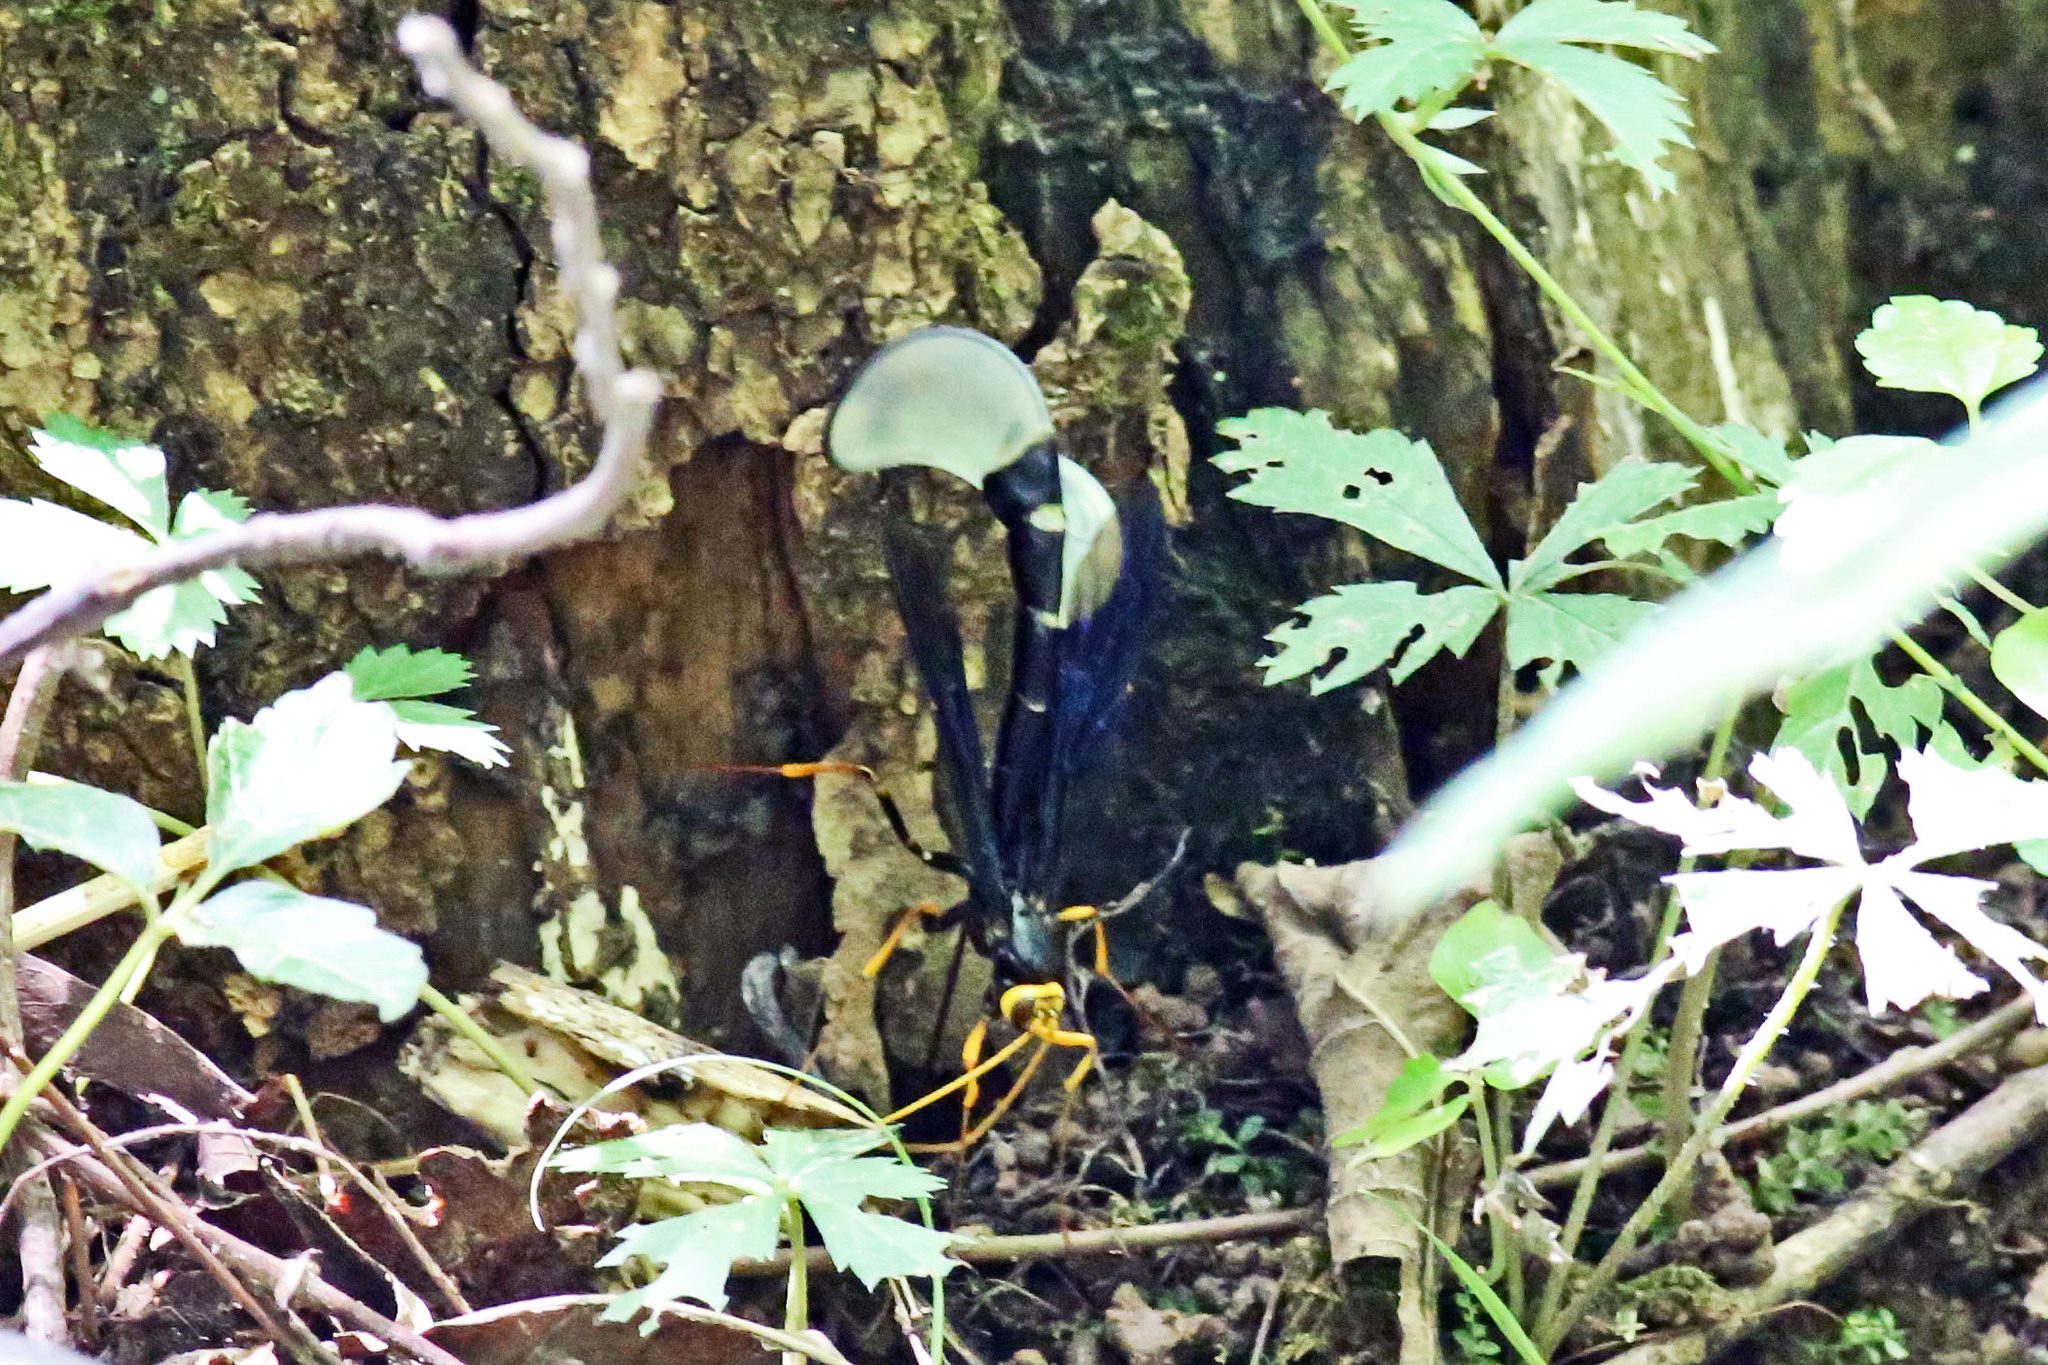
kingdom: Animalia
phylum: Arthropoda
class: Insecta
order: Hymenoptera
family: Ichneumonidae
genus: Megarhyssa
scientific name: Megarhyssa atrata
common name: Black giant ichneumonid wasp
